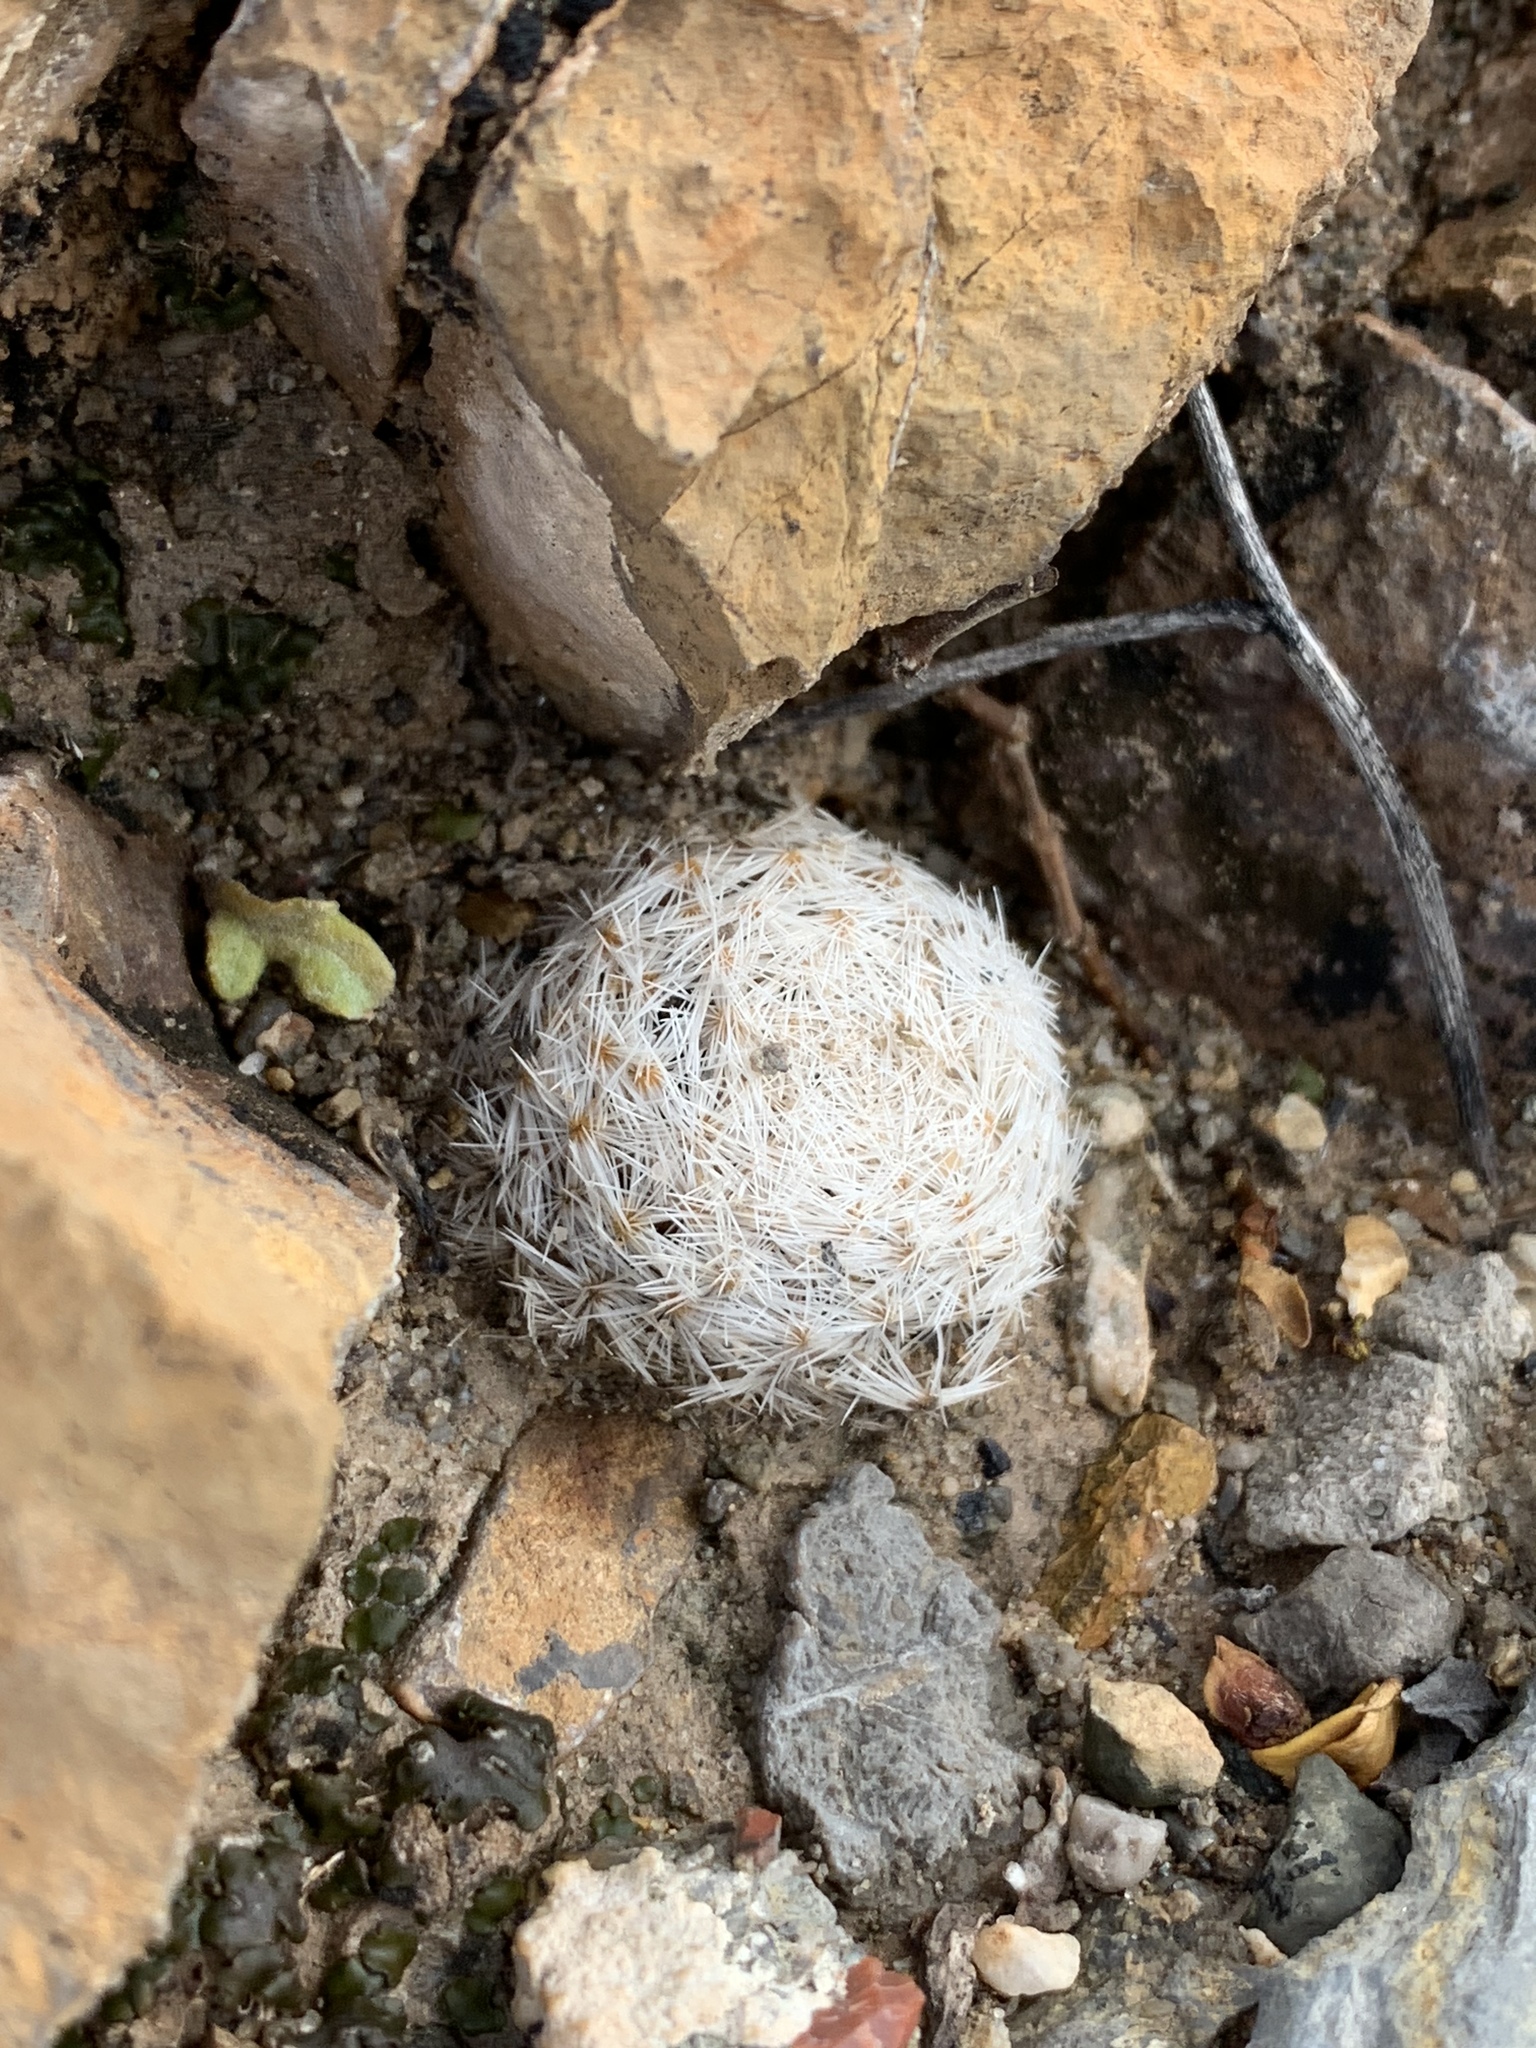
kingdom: Plantae
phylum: Tracheophyta
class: Magnoliopsida
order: Caryophyllales
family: Cactaceae
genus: Mammillaria
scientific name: Mammillaria lasiacantha
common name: Lace-spine nipple cactus
